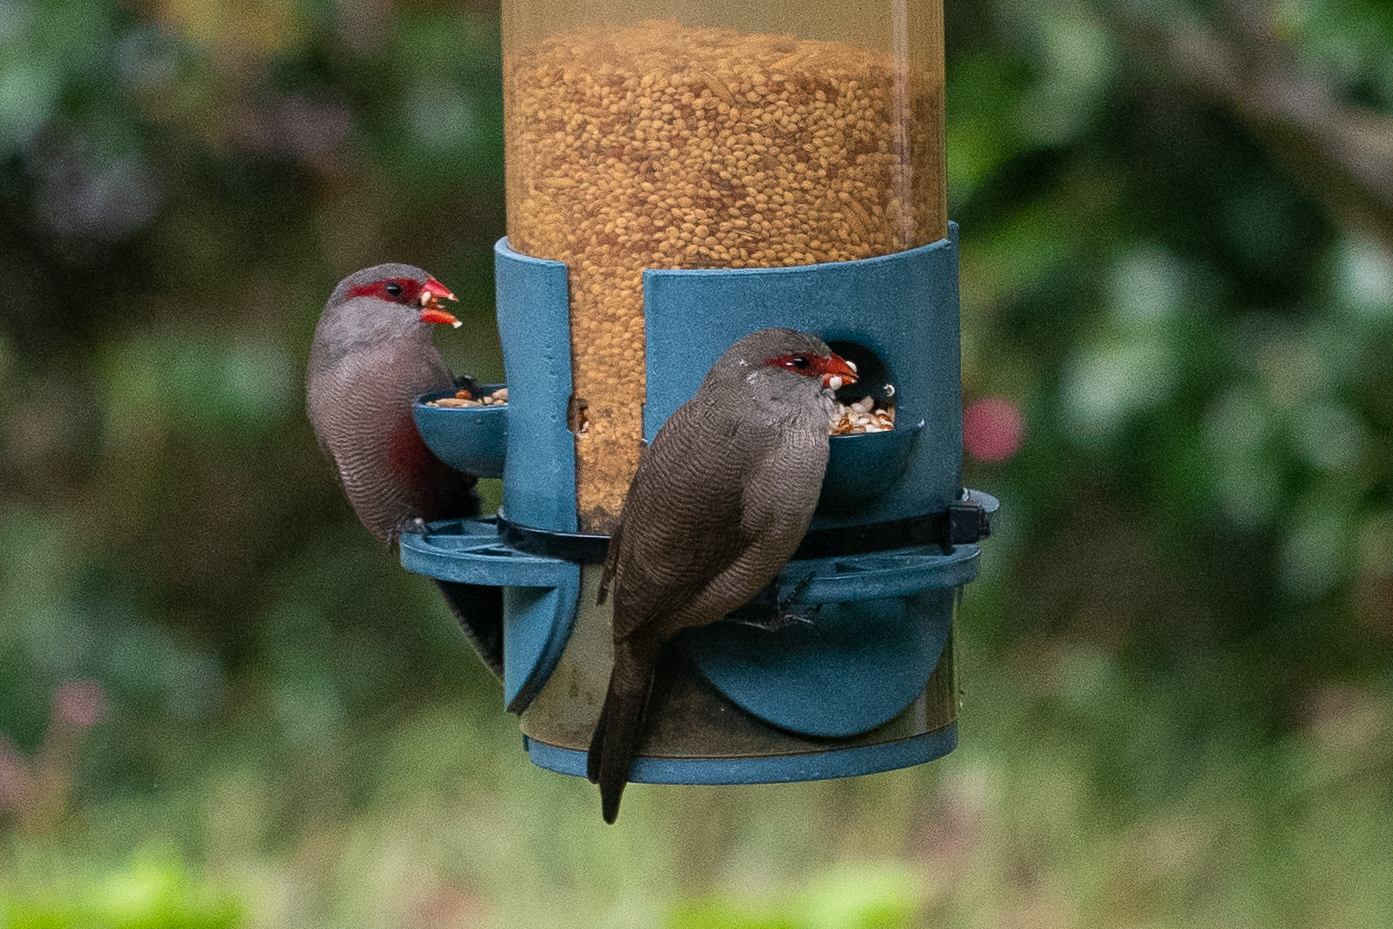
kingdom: Animalia
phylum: Chordata
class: Aves
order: Passeriformes
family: Estrildidae
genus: Estrilda
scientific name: Estrilda astrild
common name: Common waxbill
